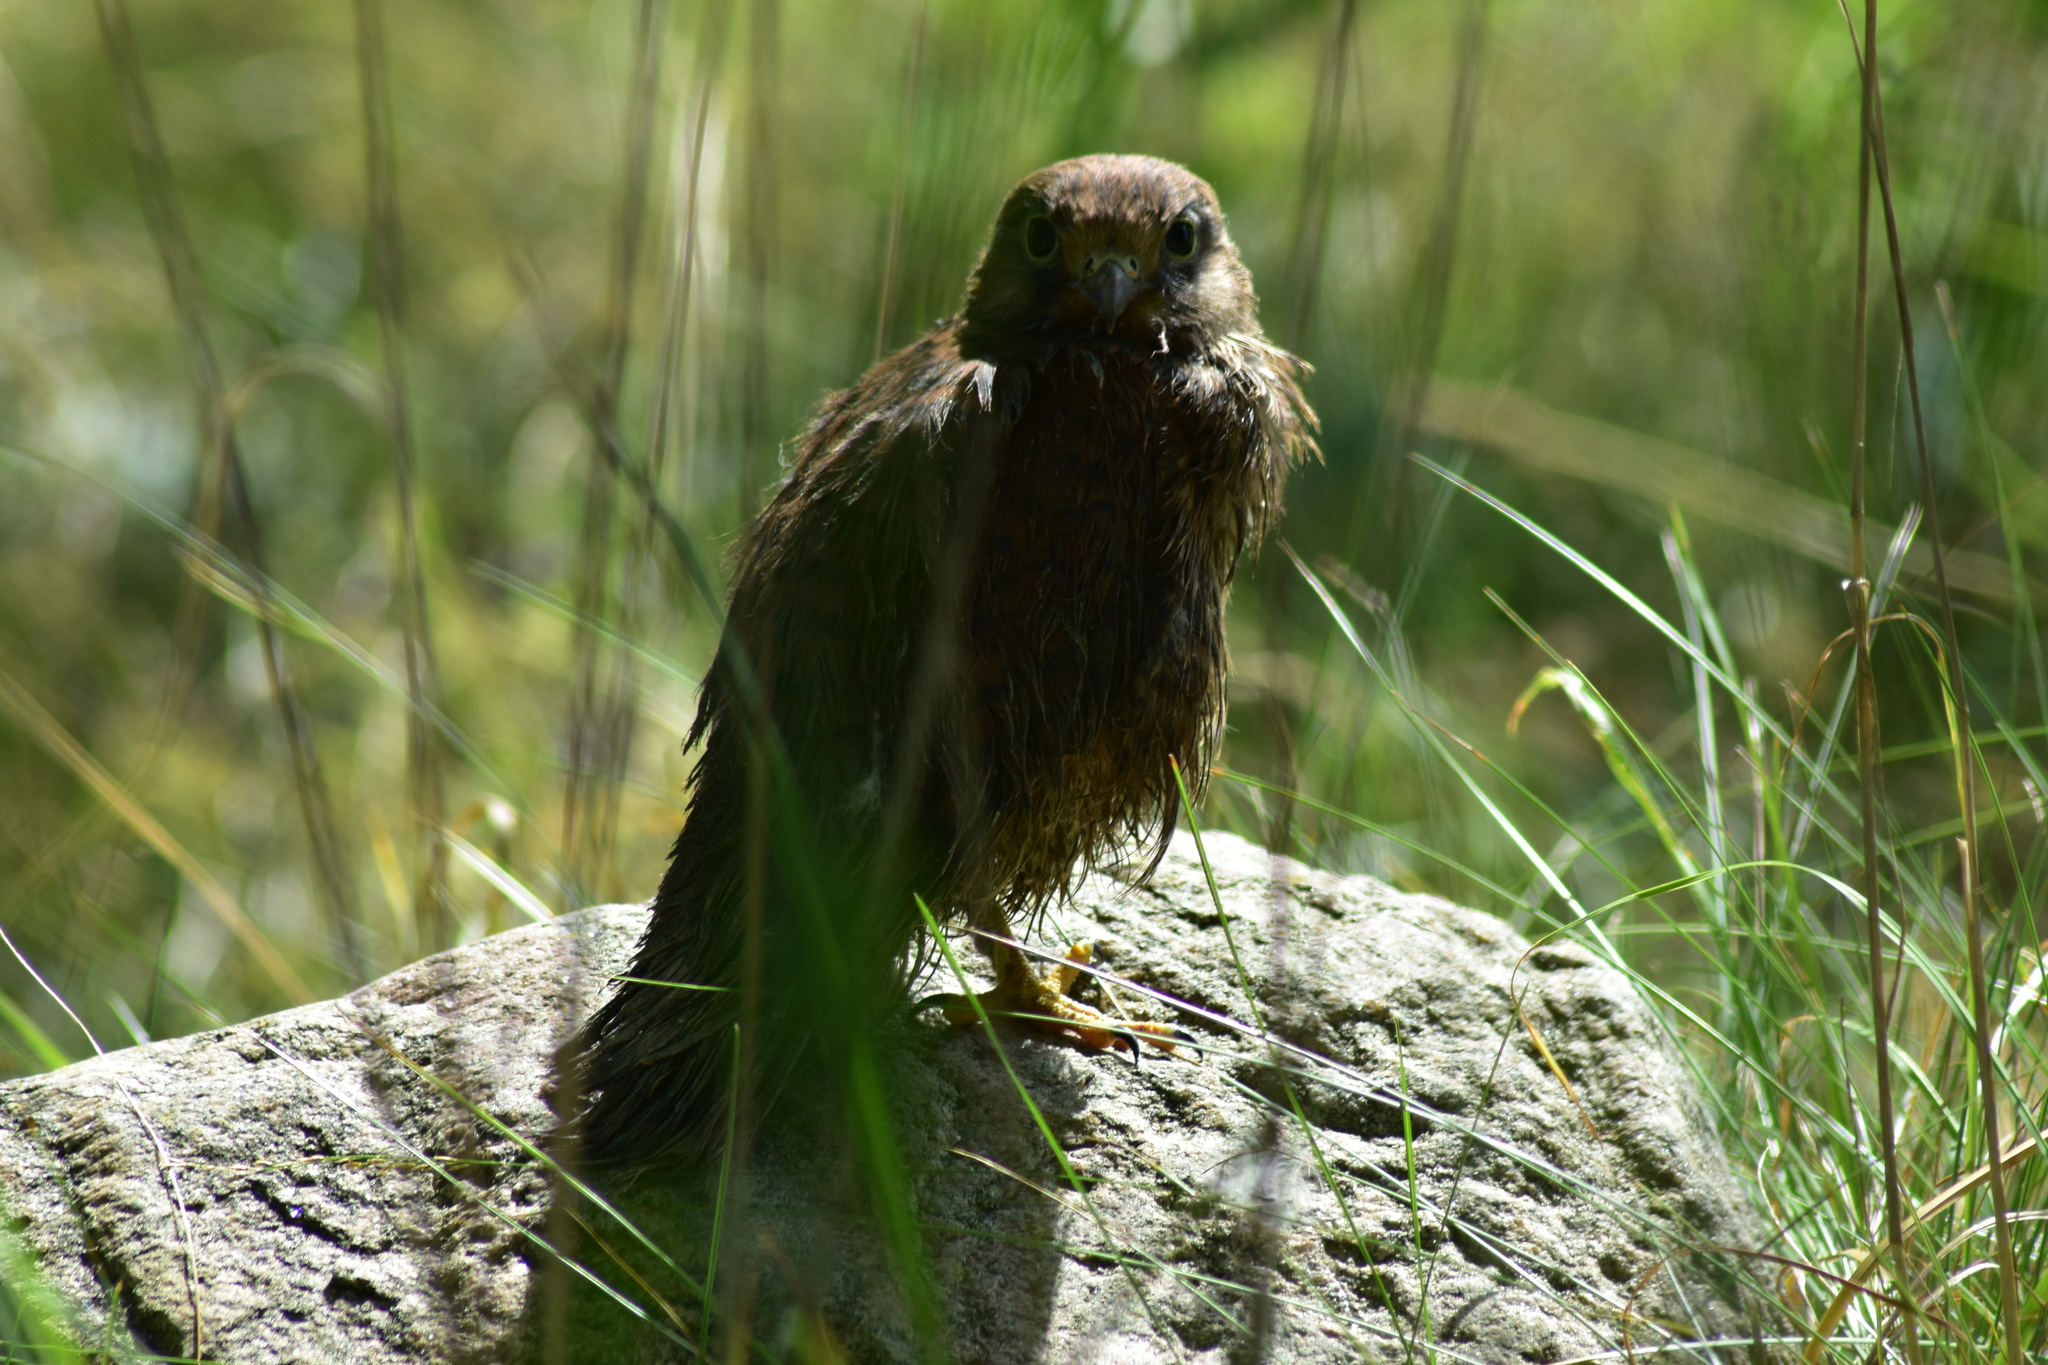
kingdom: Animalia
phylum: Chordata
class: Aves
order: Falconiformes
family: Falconidae
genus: Falco
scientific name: Falco tinnunculus
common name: Common kestrel
